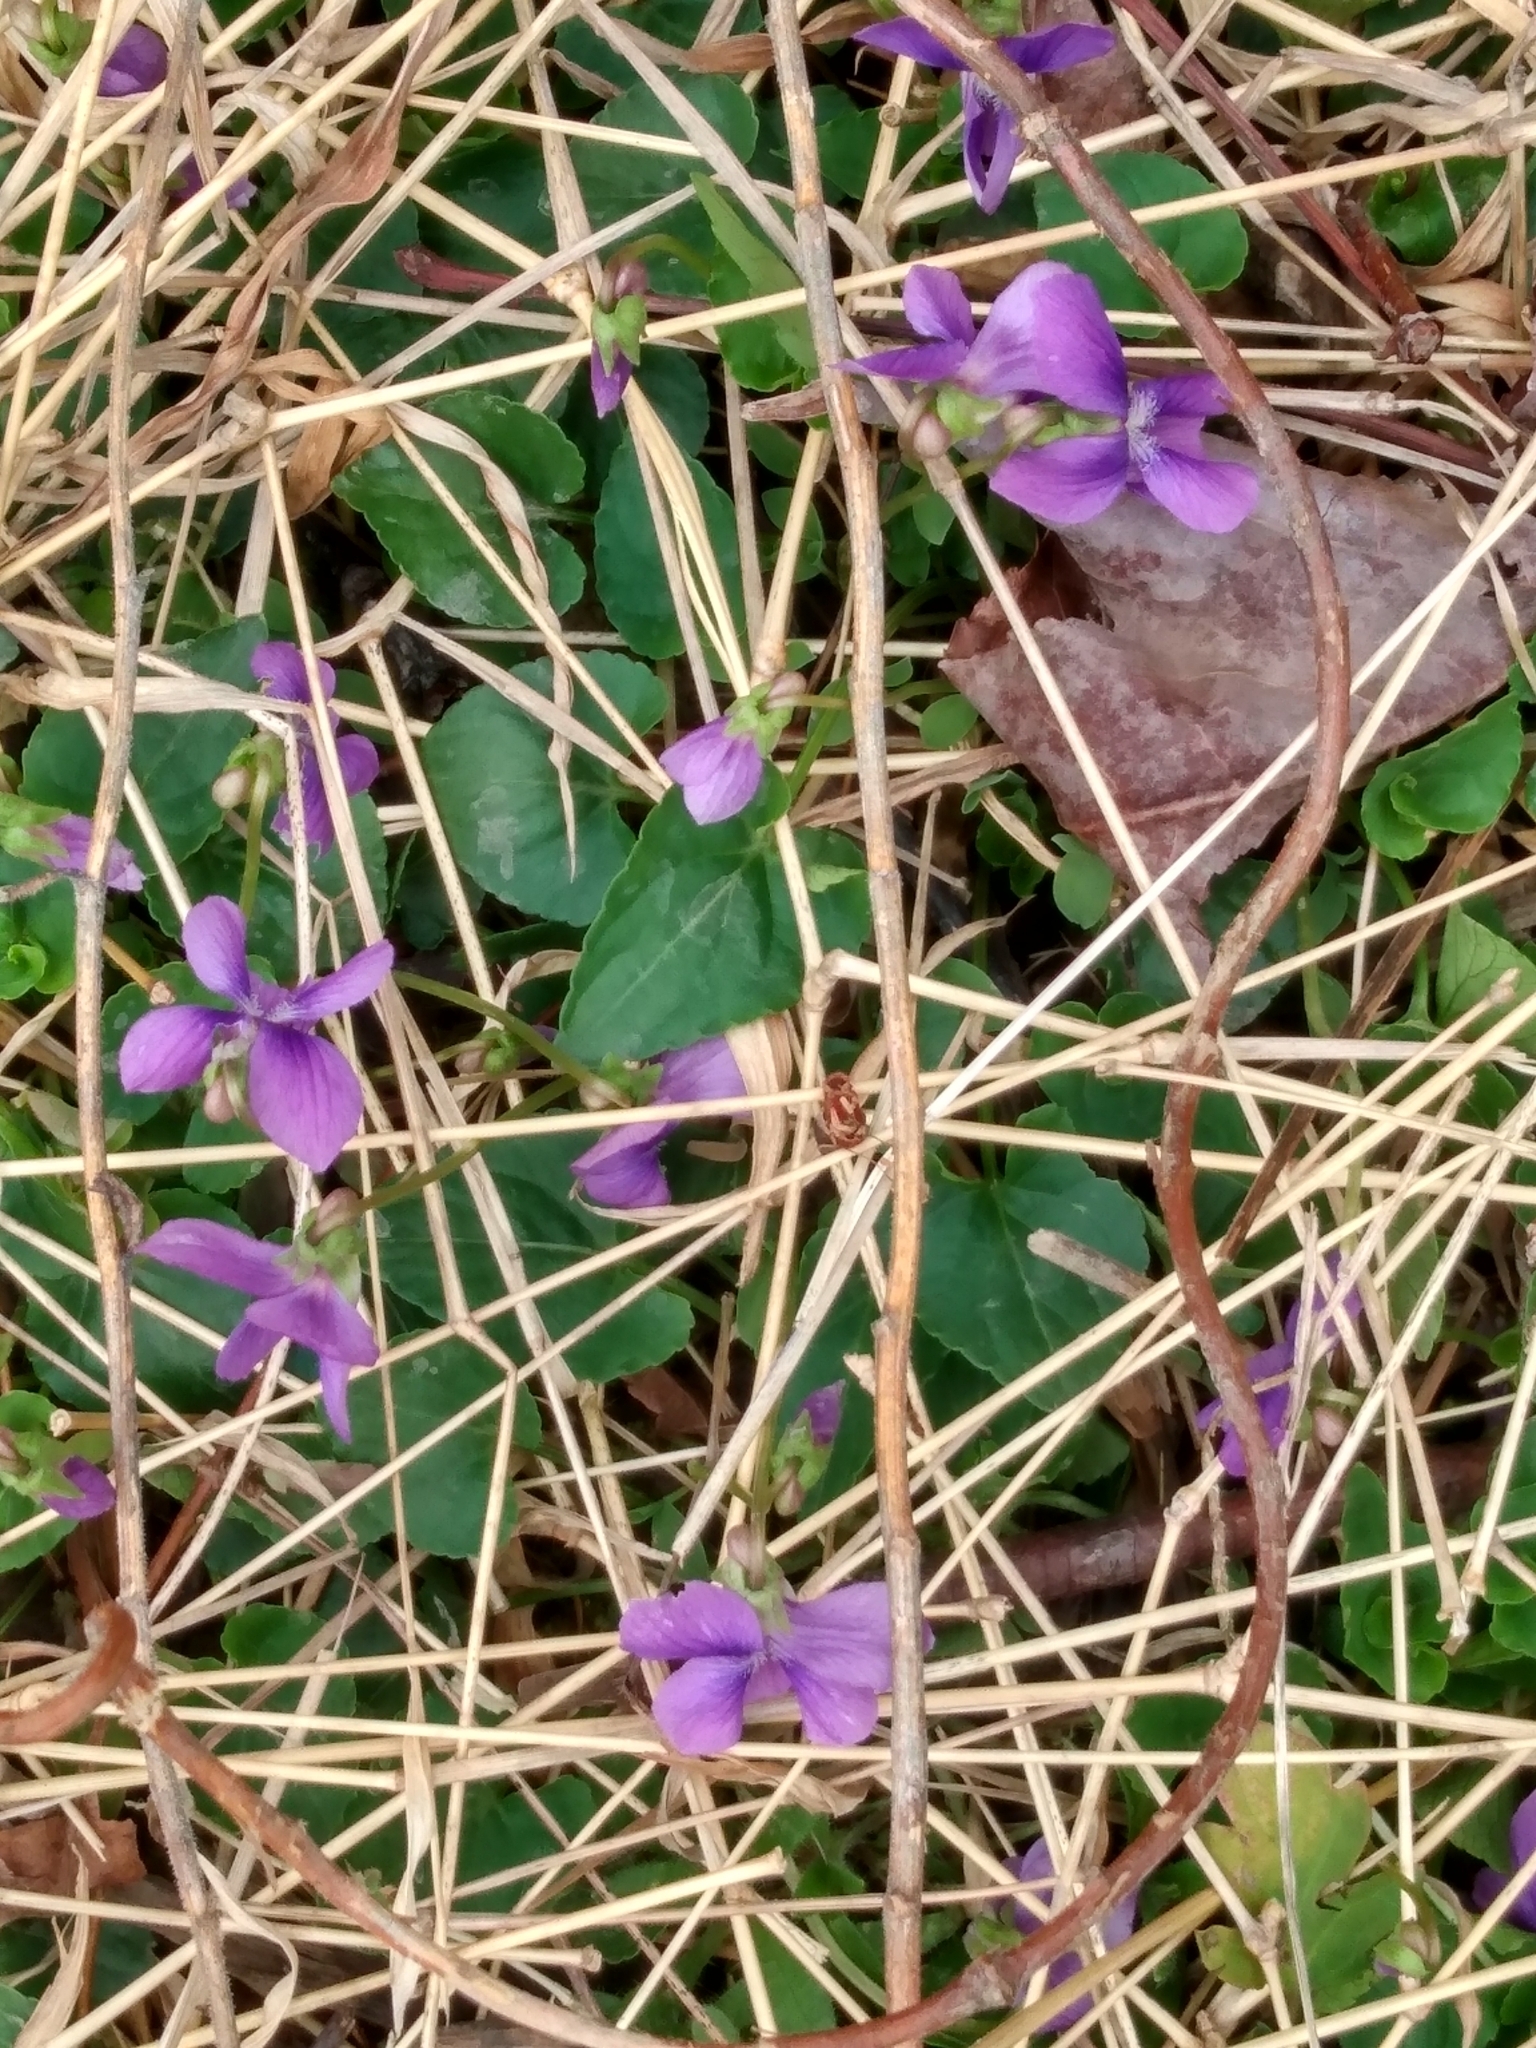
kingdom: Plantae
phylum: Tracheophyta
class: Magnoliopsida
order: Malpighiales
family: Violaceae
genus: Viola
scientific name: Viola sororia
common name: Dooryard violet
